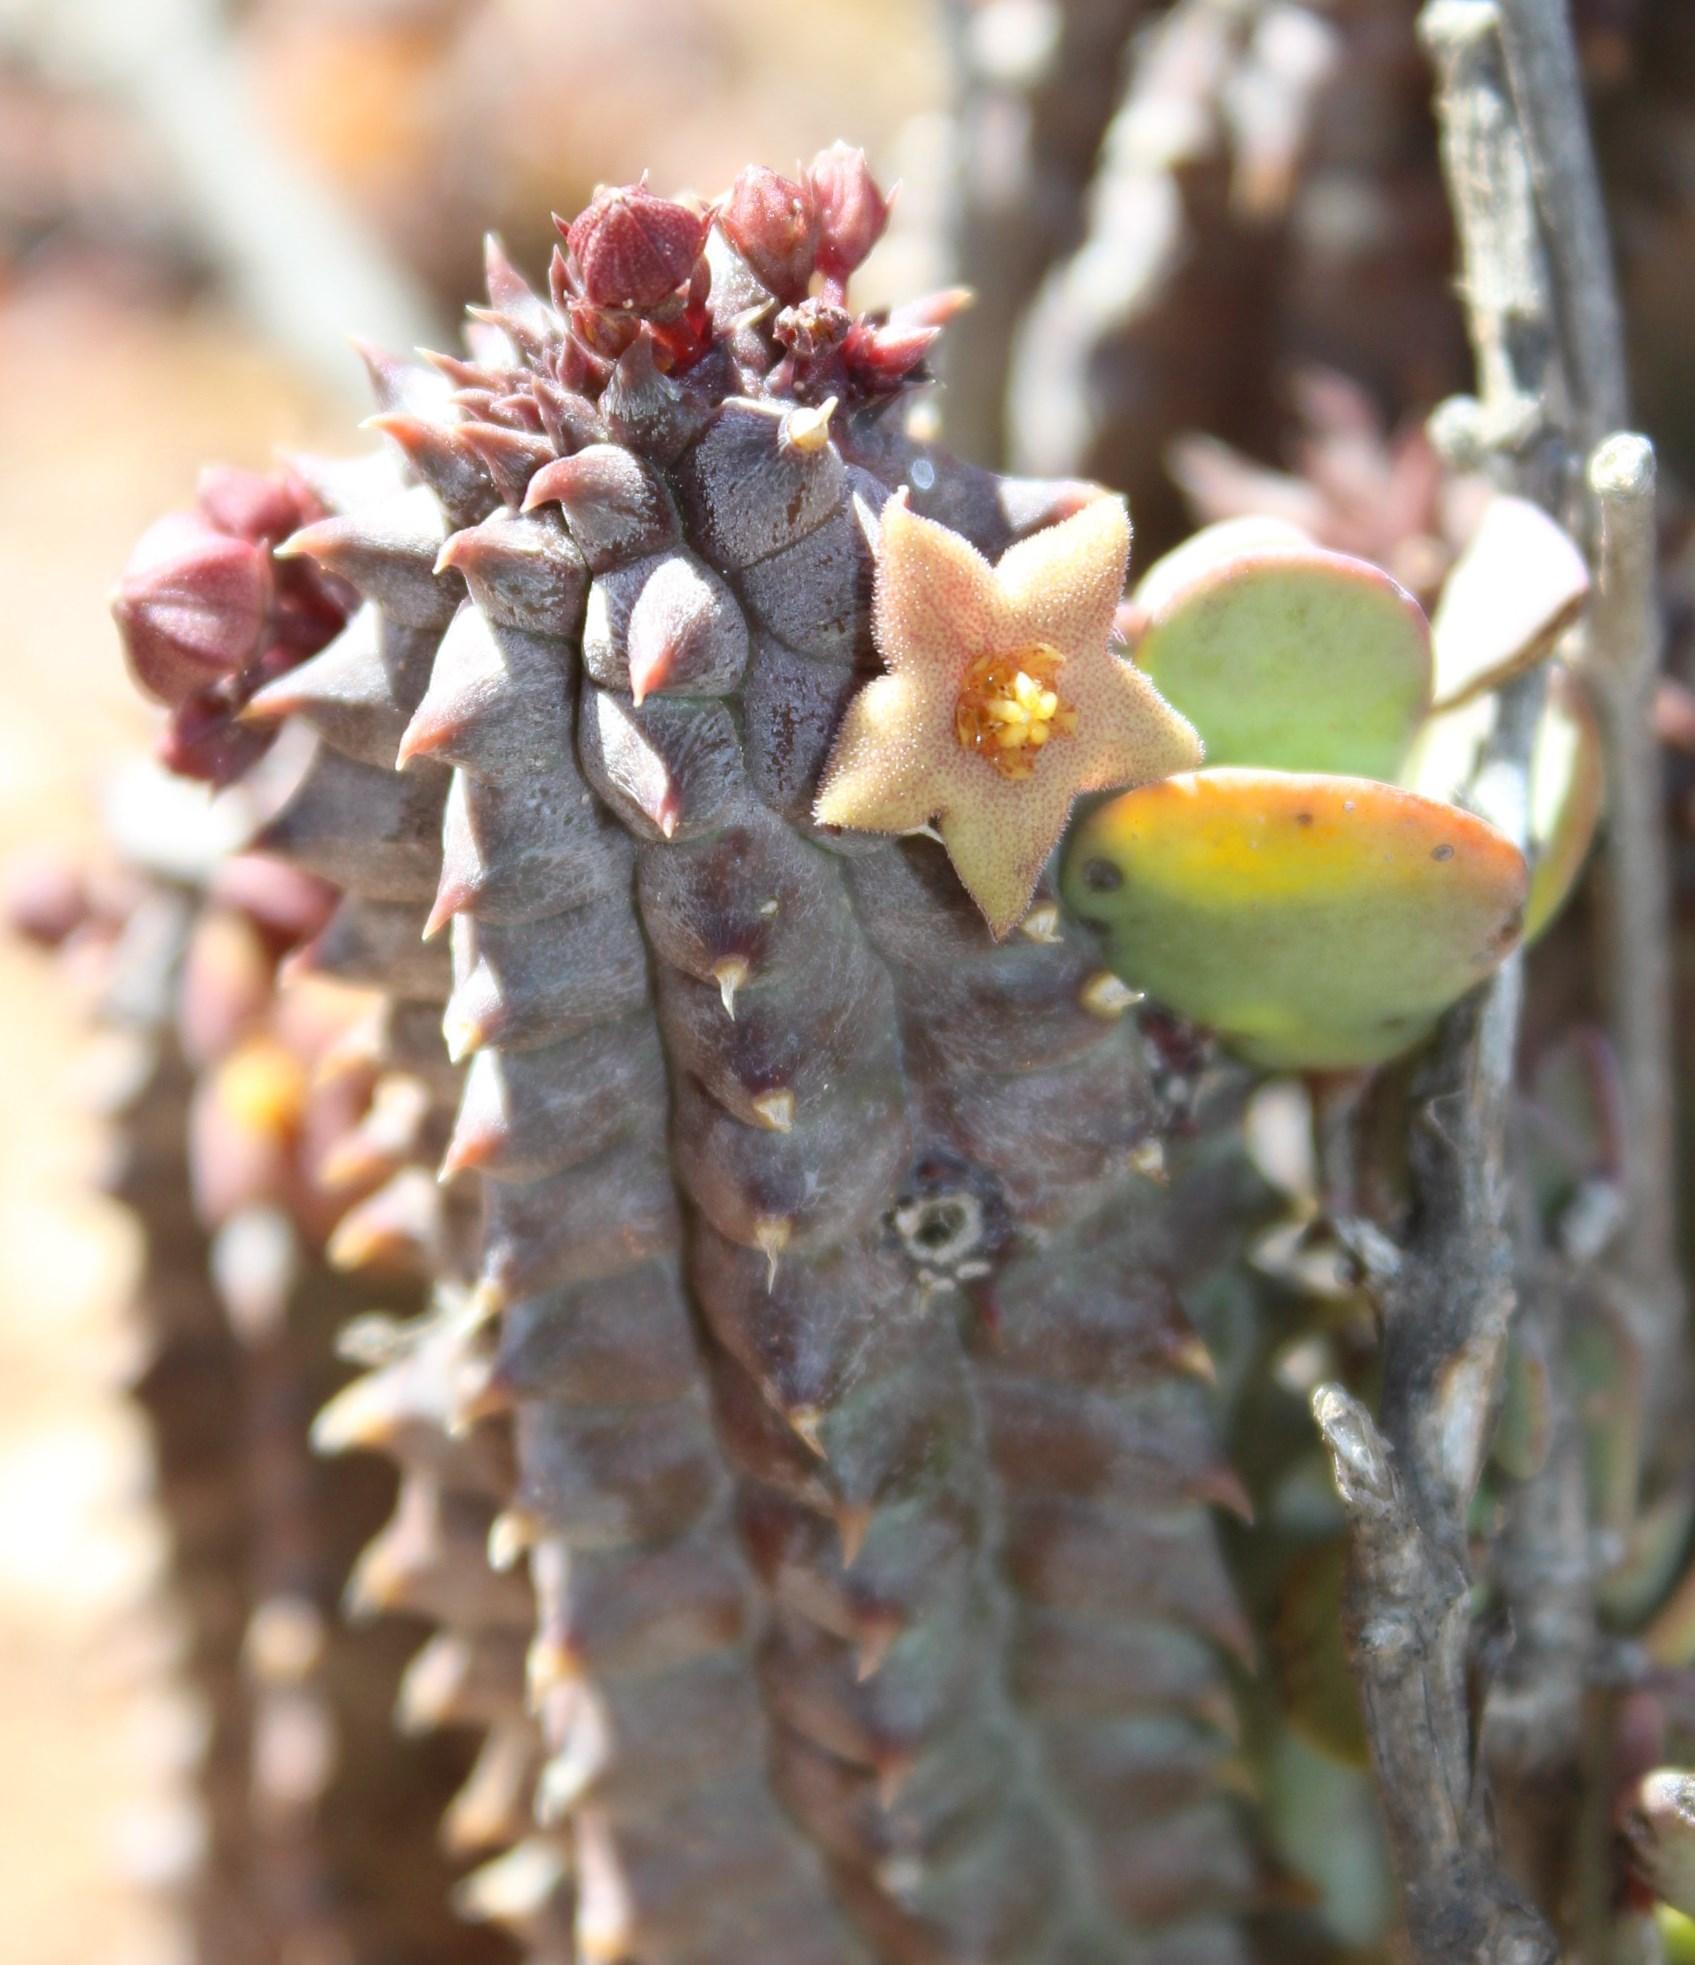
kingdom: Plantae
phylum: Tracheophyta
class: Magnoliopsida
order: Gentianales
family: Apocynaceae
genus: Ceropegia
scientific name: Ceropegia columnaris
